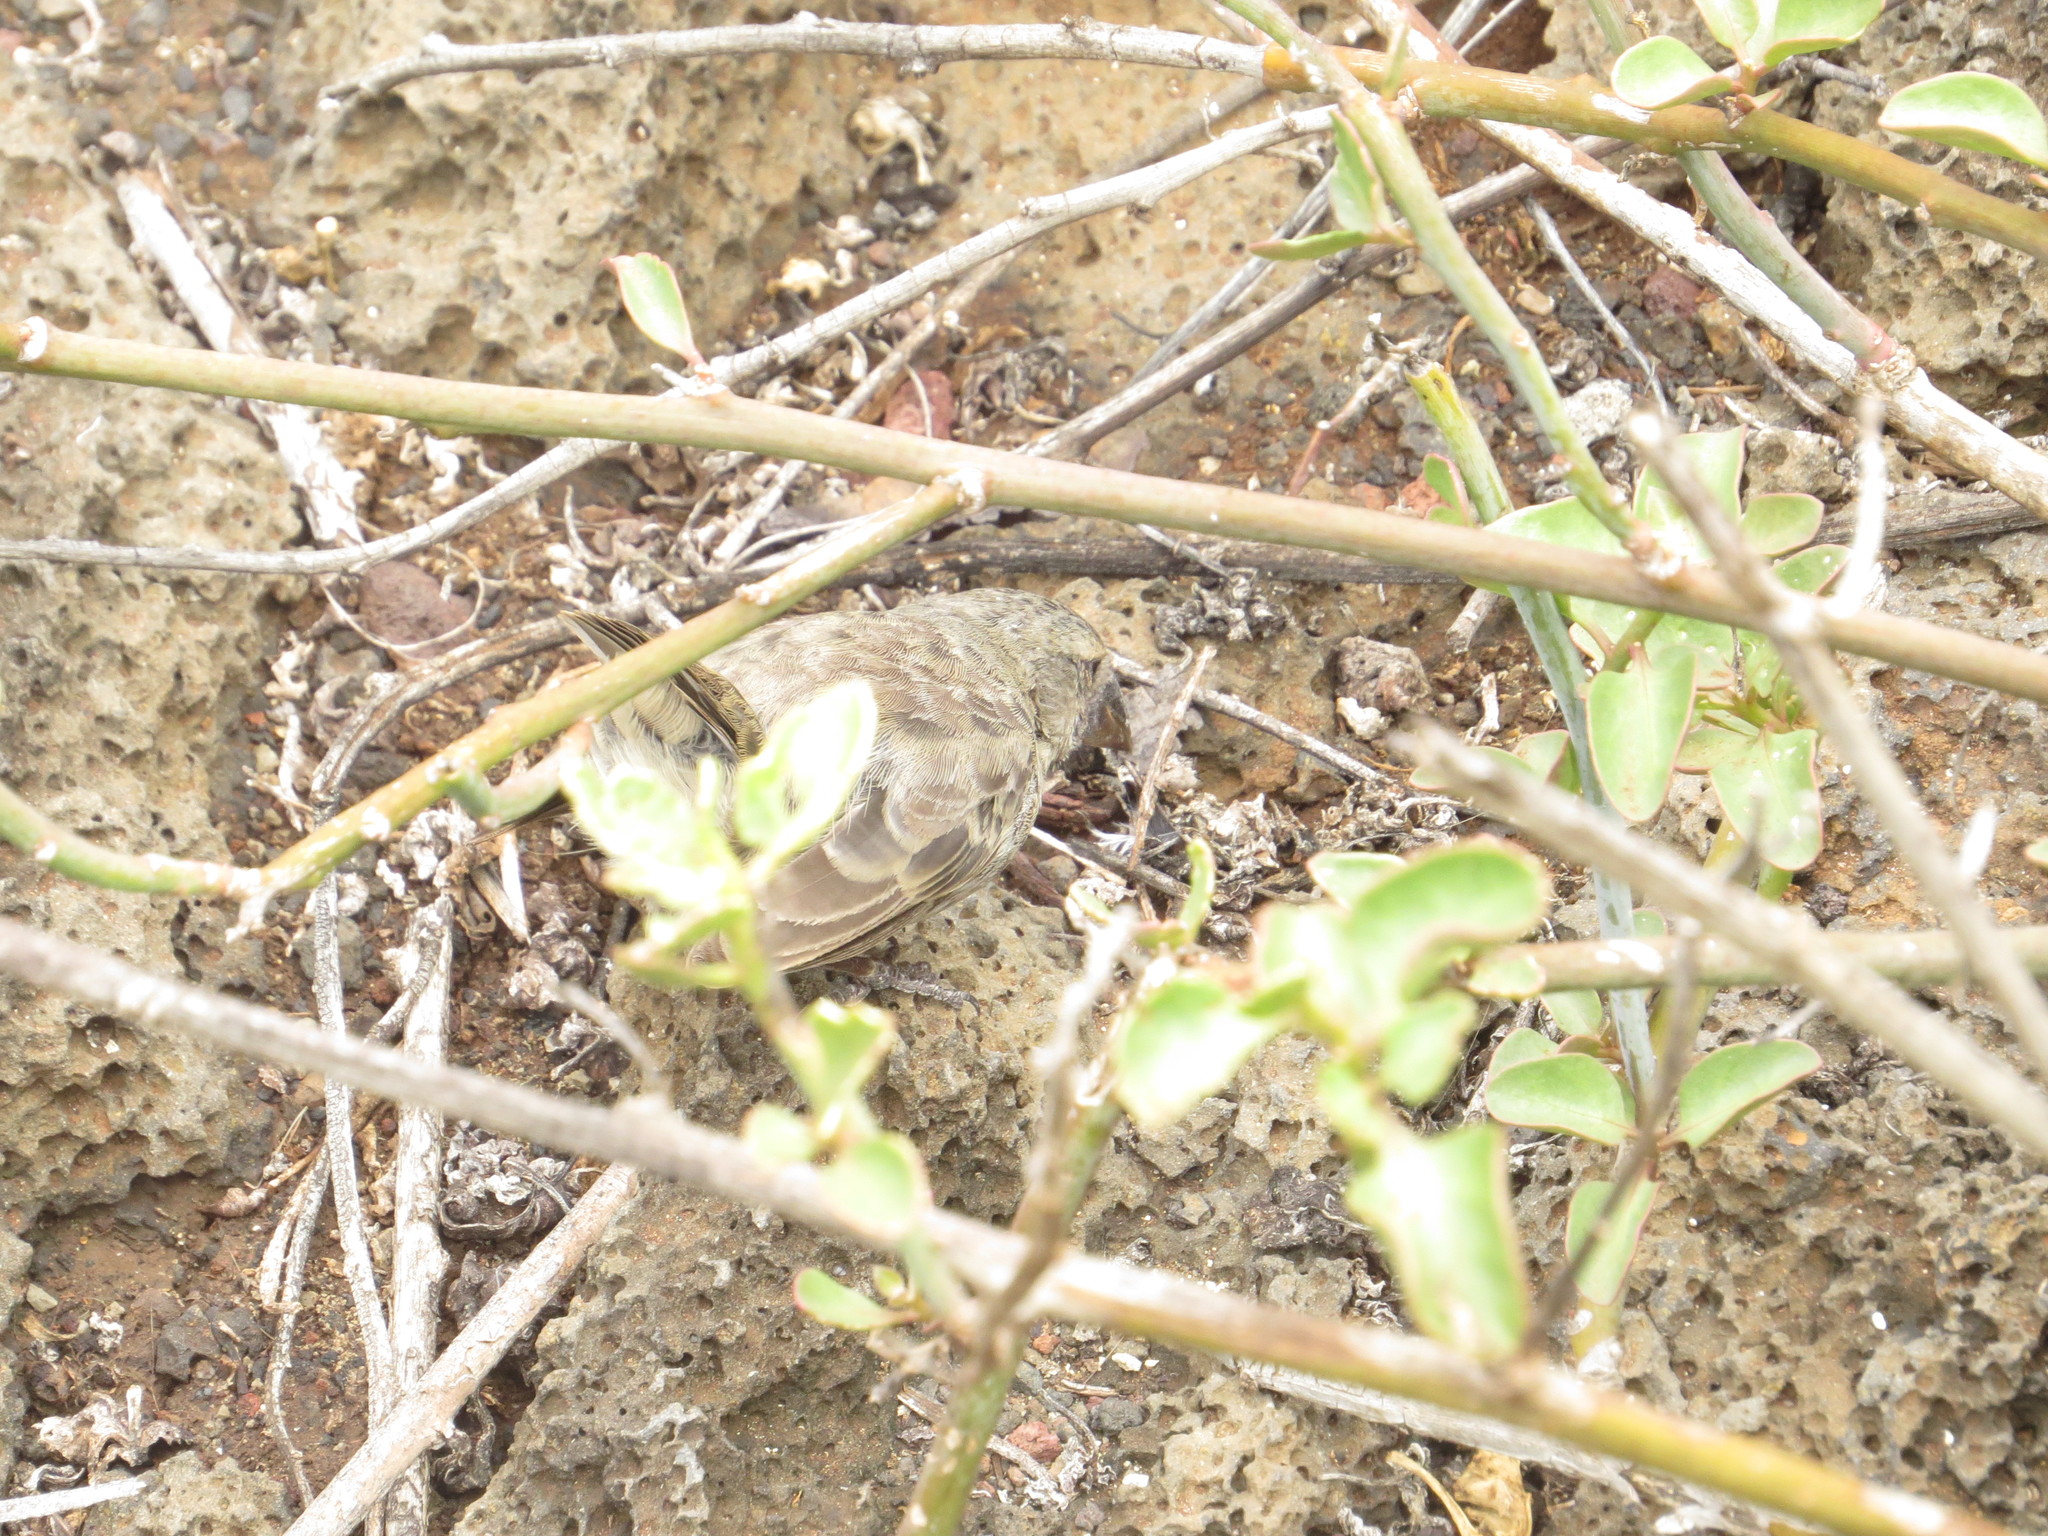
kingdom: Animalia
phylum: Chordata
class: Aves
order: Passeriformes
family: Thraupidae
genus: Geospiza
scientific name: Geospiza fuliginosa
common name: Small ground finch
